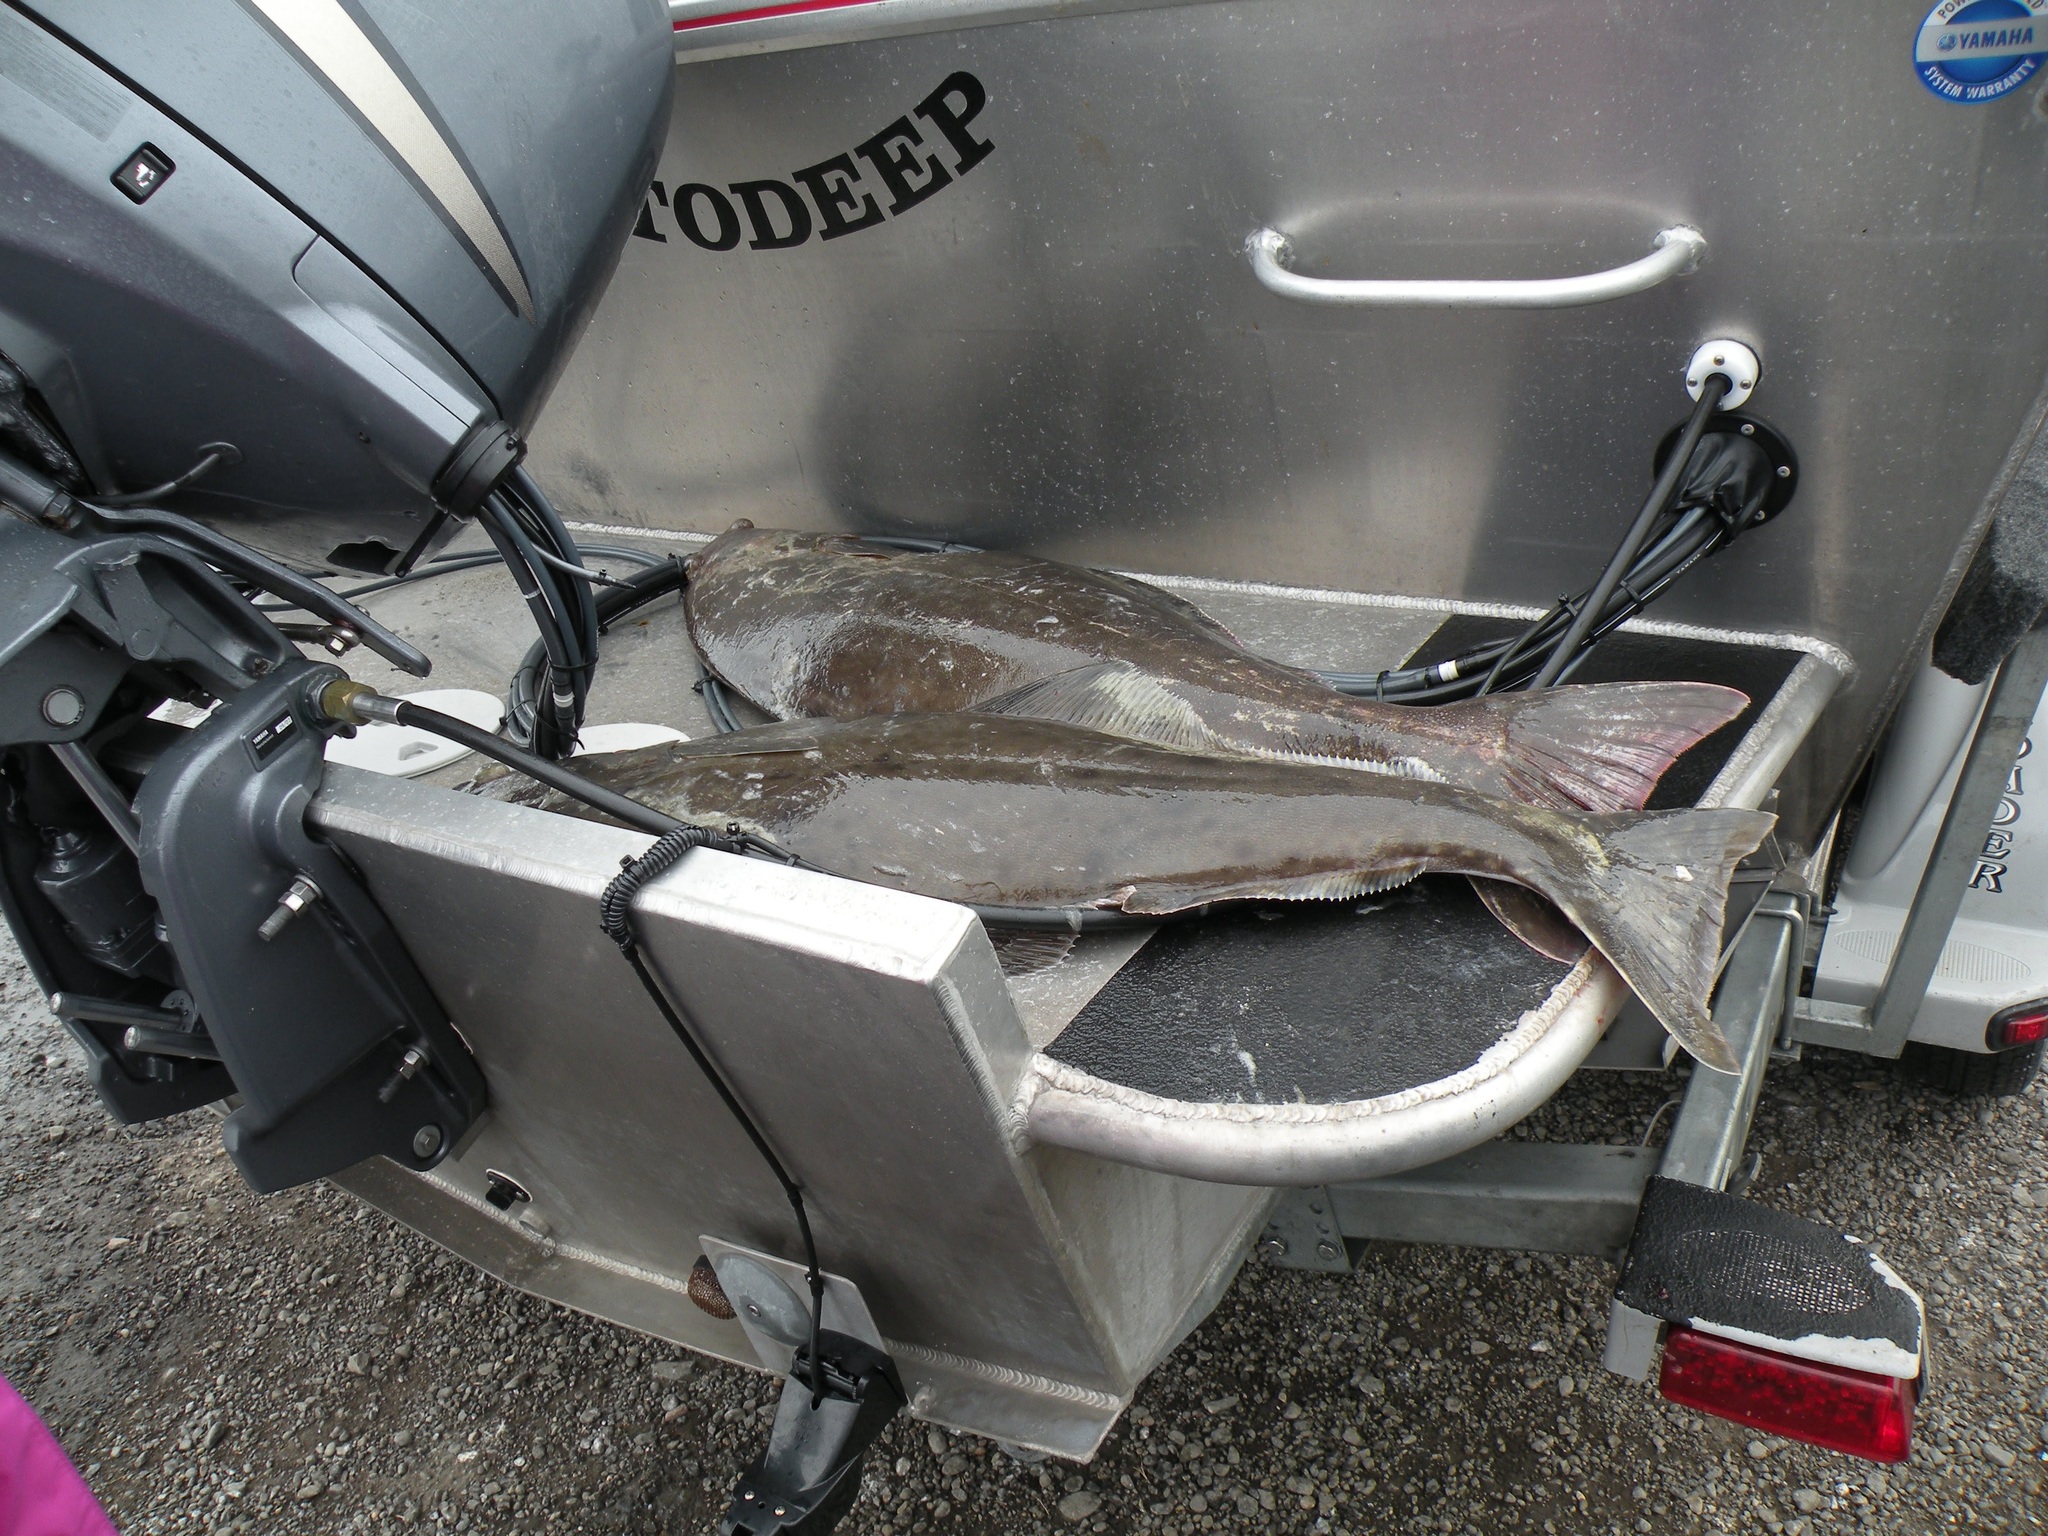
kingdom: Animalia
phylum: Chordata
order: Pleuronectiformes
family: Pleuronectidae
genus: Hippoglossus
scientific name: Hippoglossus stenolepis
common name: Pacific halibut
